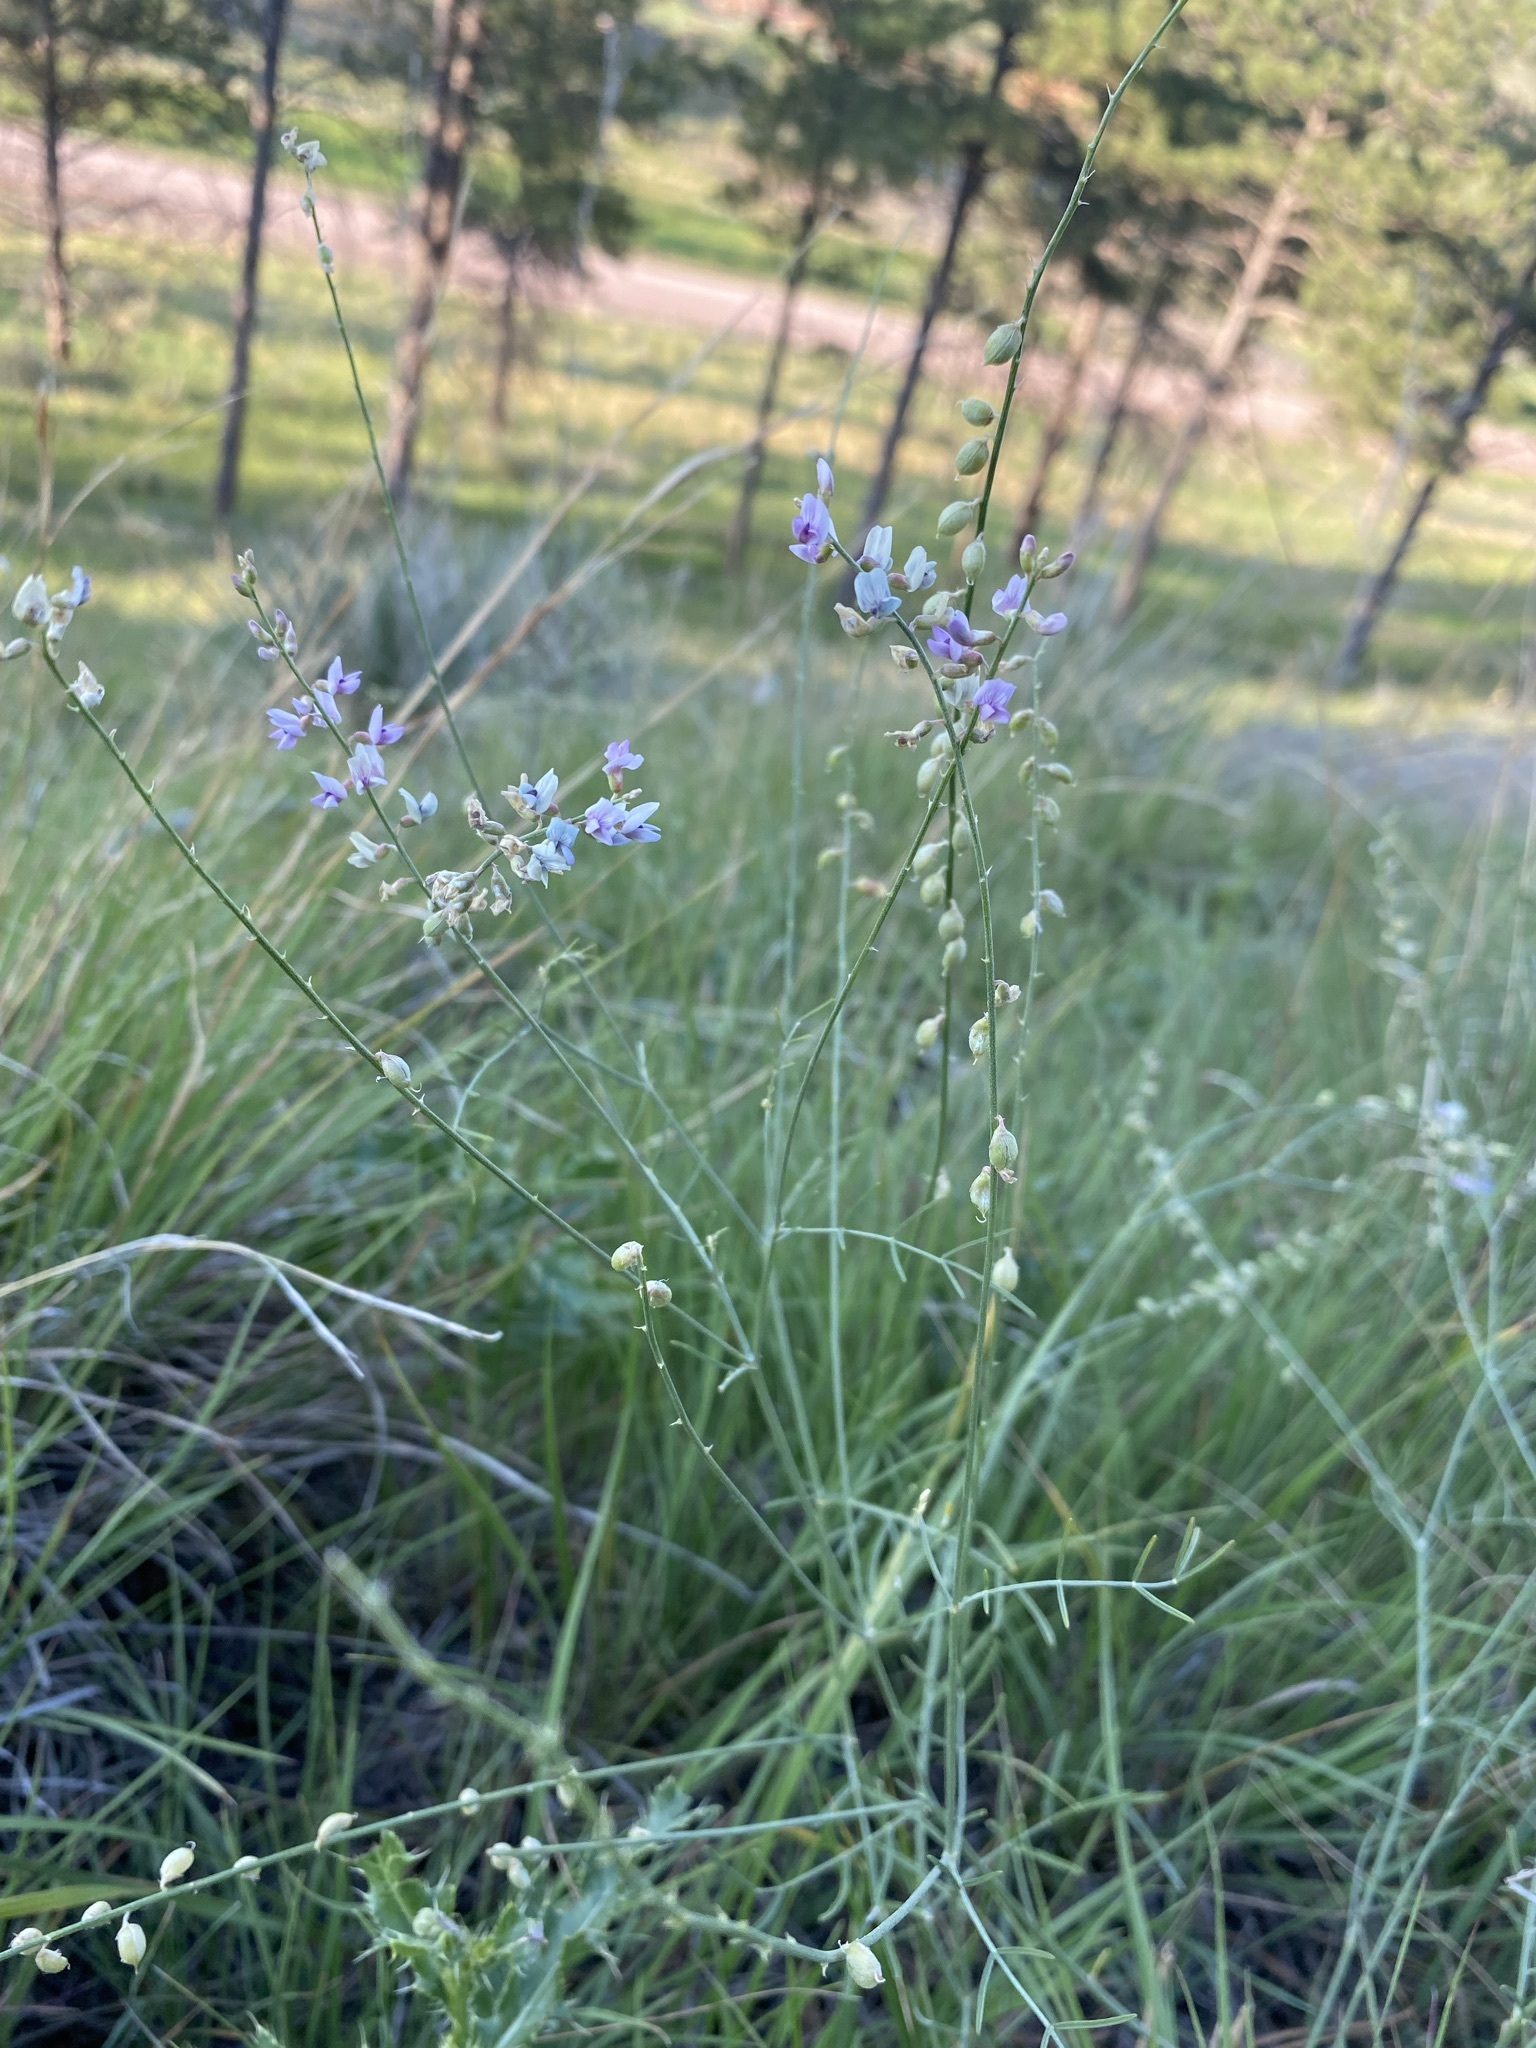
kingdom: Plantae
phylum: Tracheophyta
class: Magnoliopsida
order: Fabales
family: Fabaceae
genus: Astragalus
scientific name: Astragalus gracilis
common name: Slender milk-vetch
